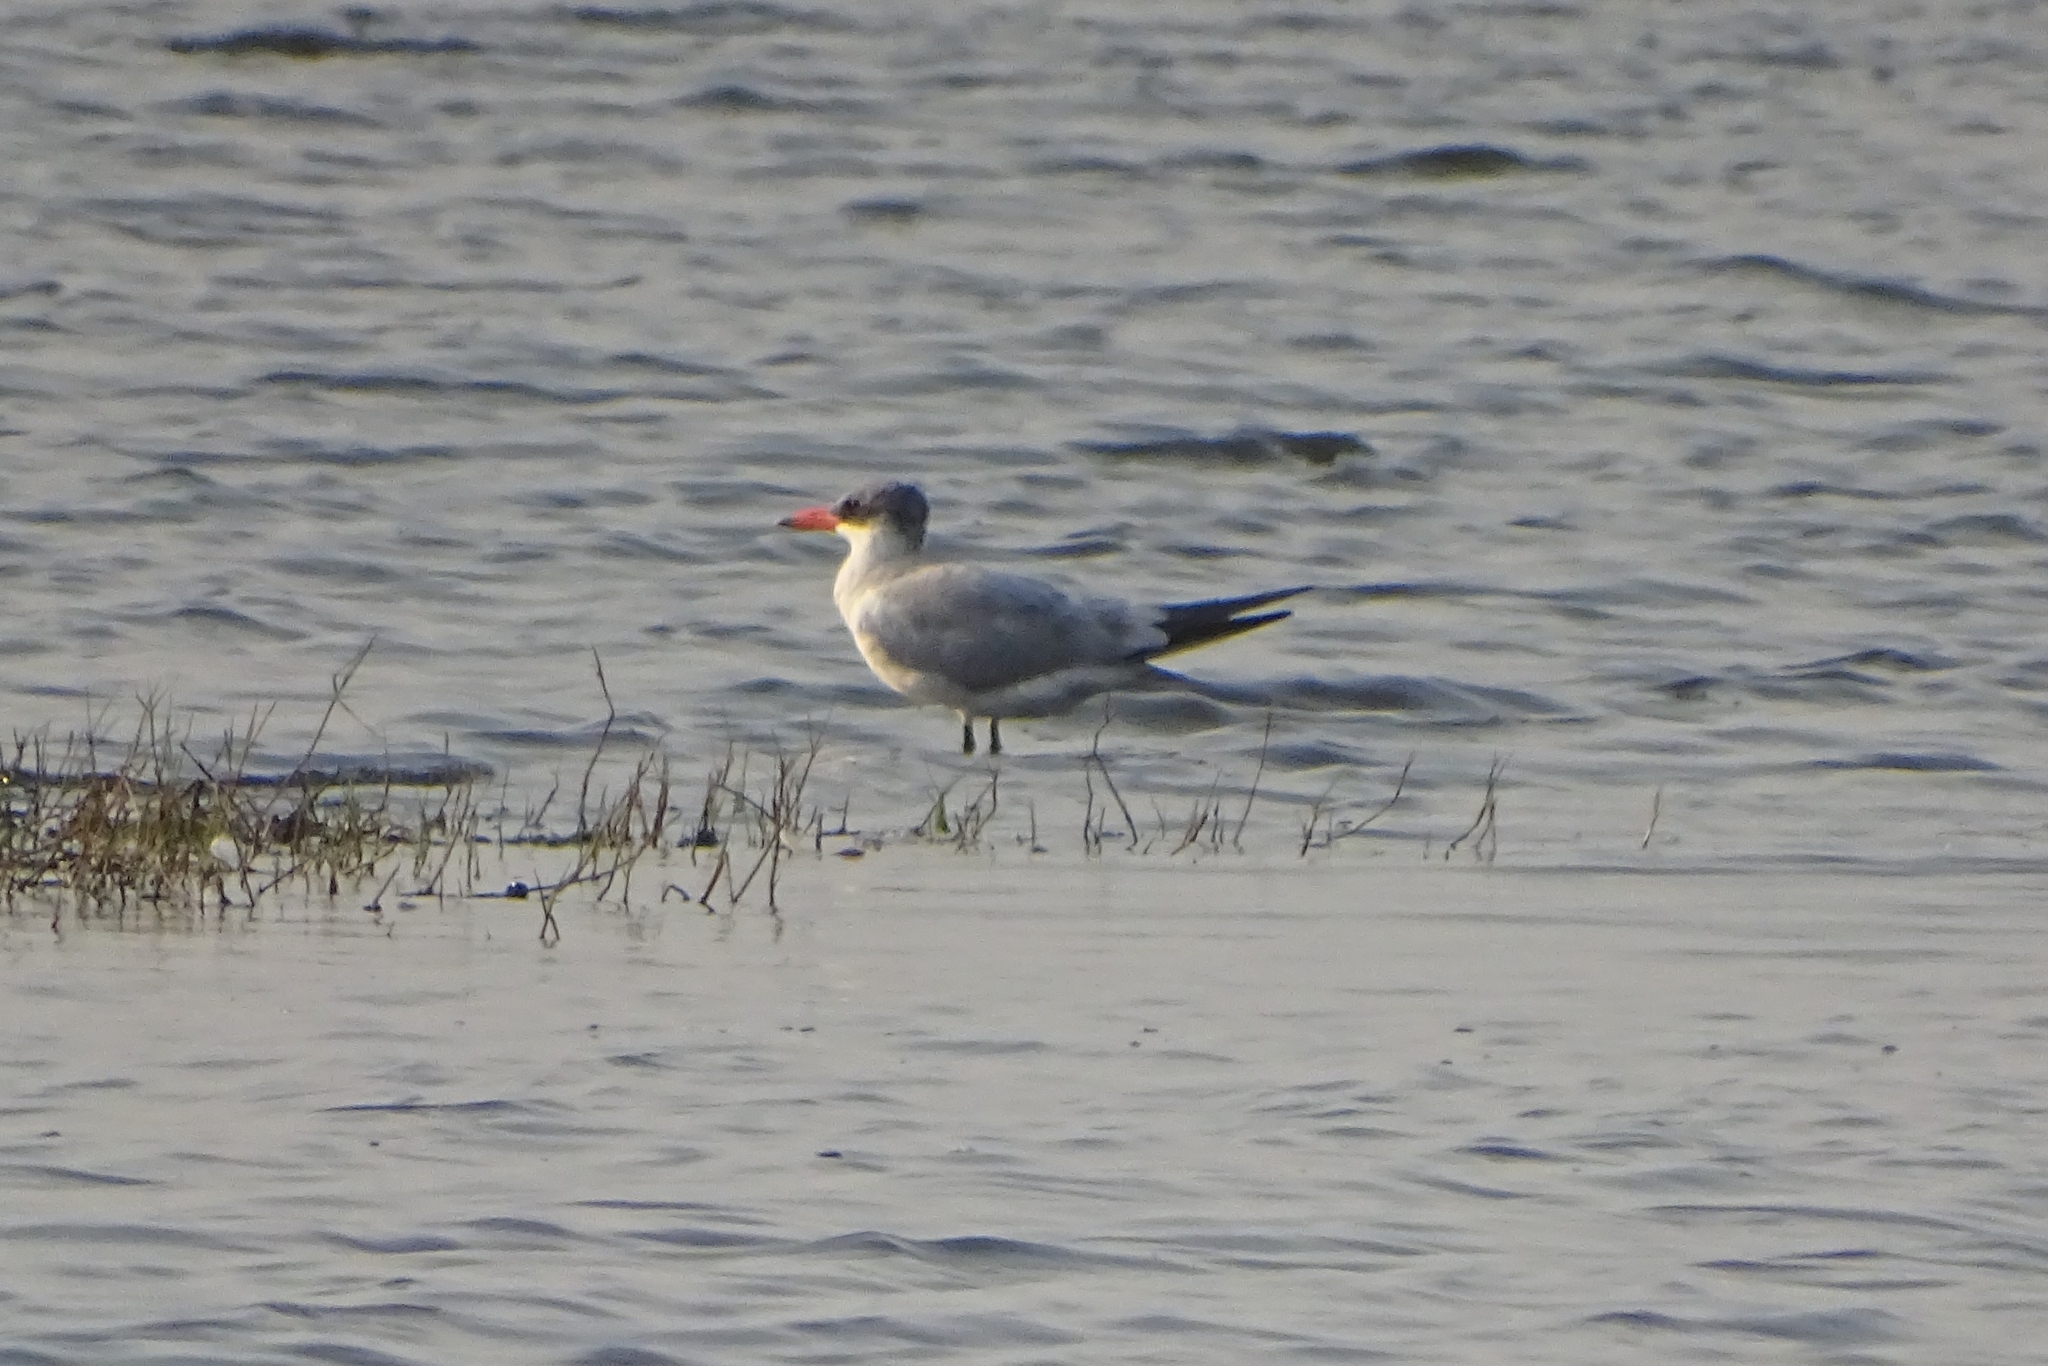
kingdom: Animalia
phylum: Chordata
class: Aves
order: Charadriiformes
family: Laridae
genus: Hydroprogne
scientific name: Hydroprogne caspia
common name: Caspian tern
